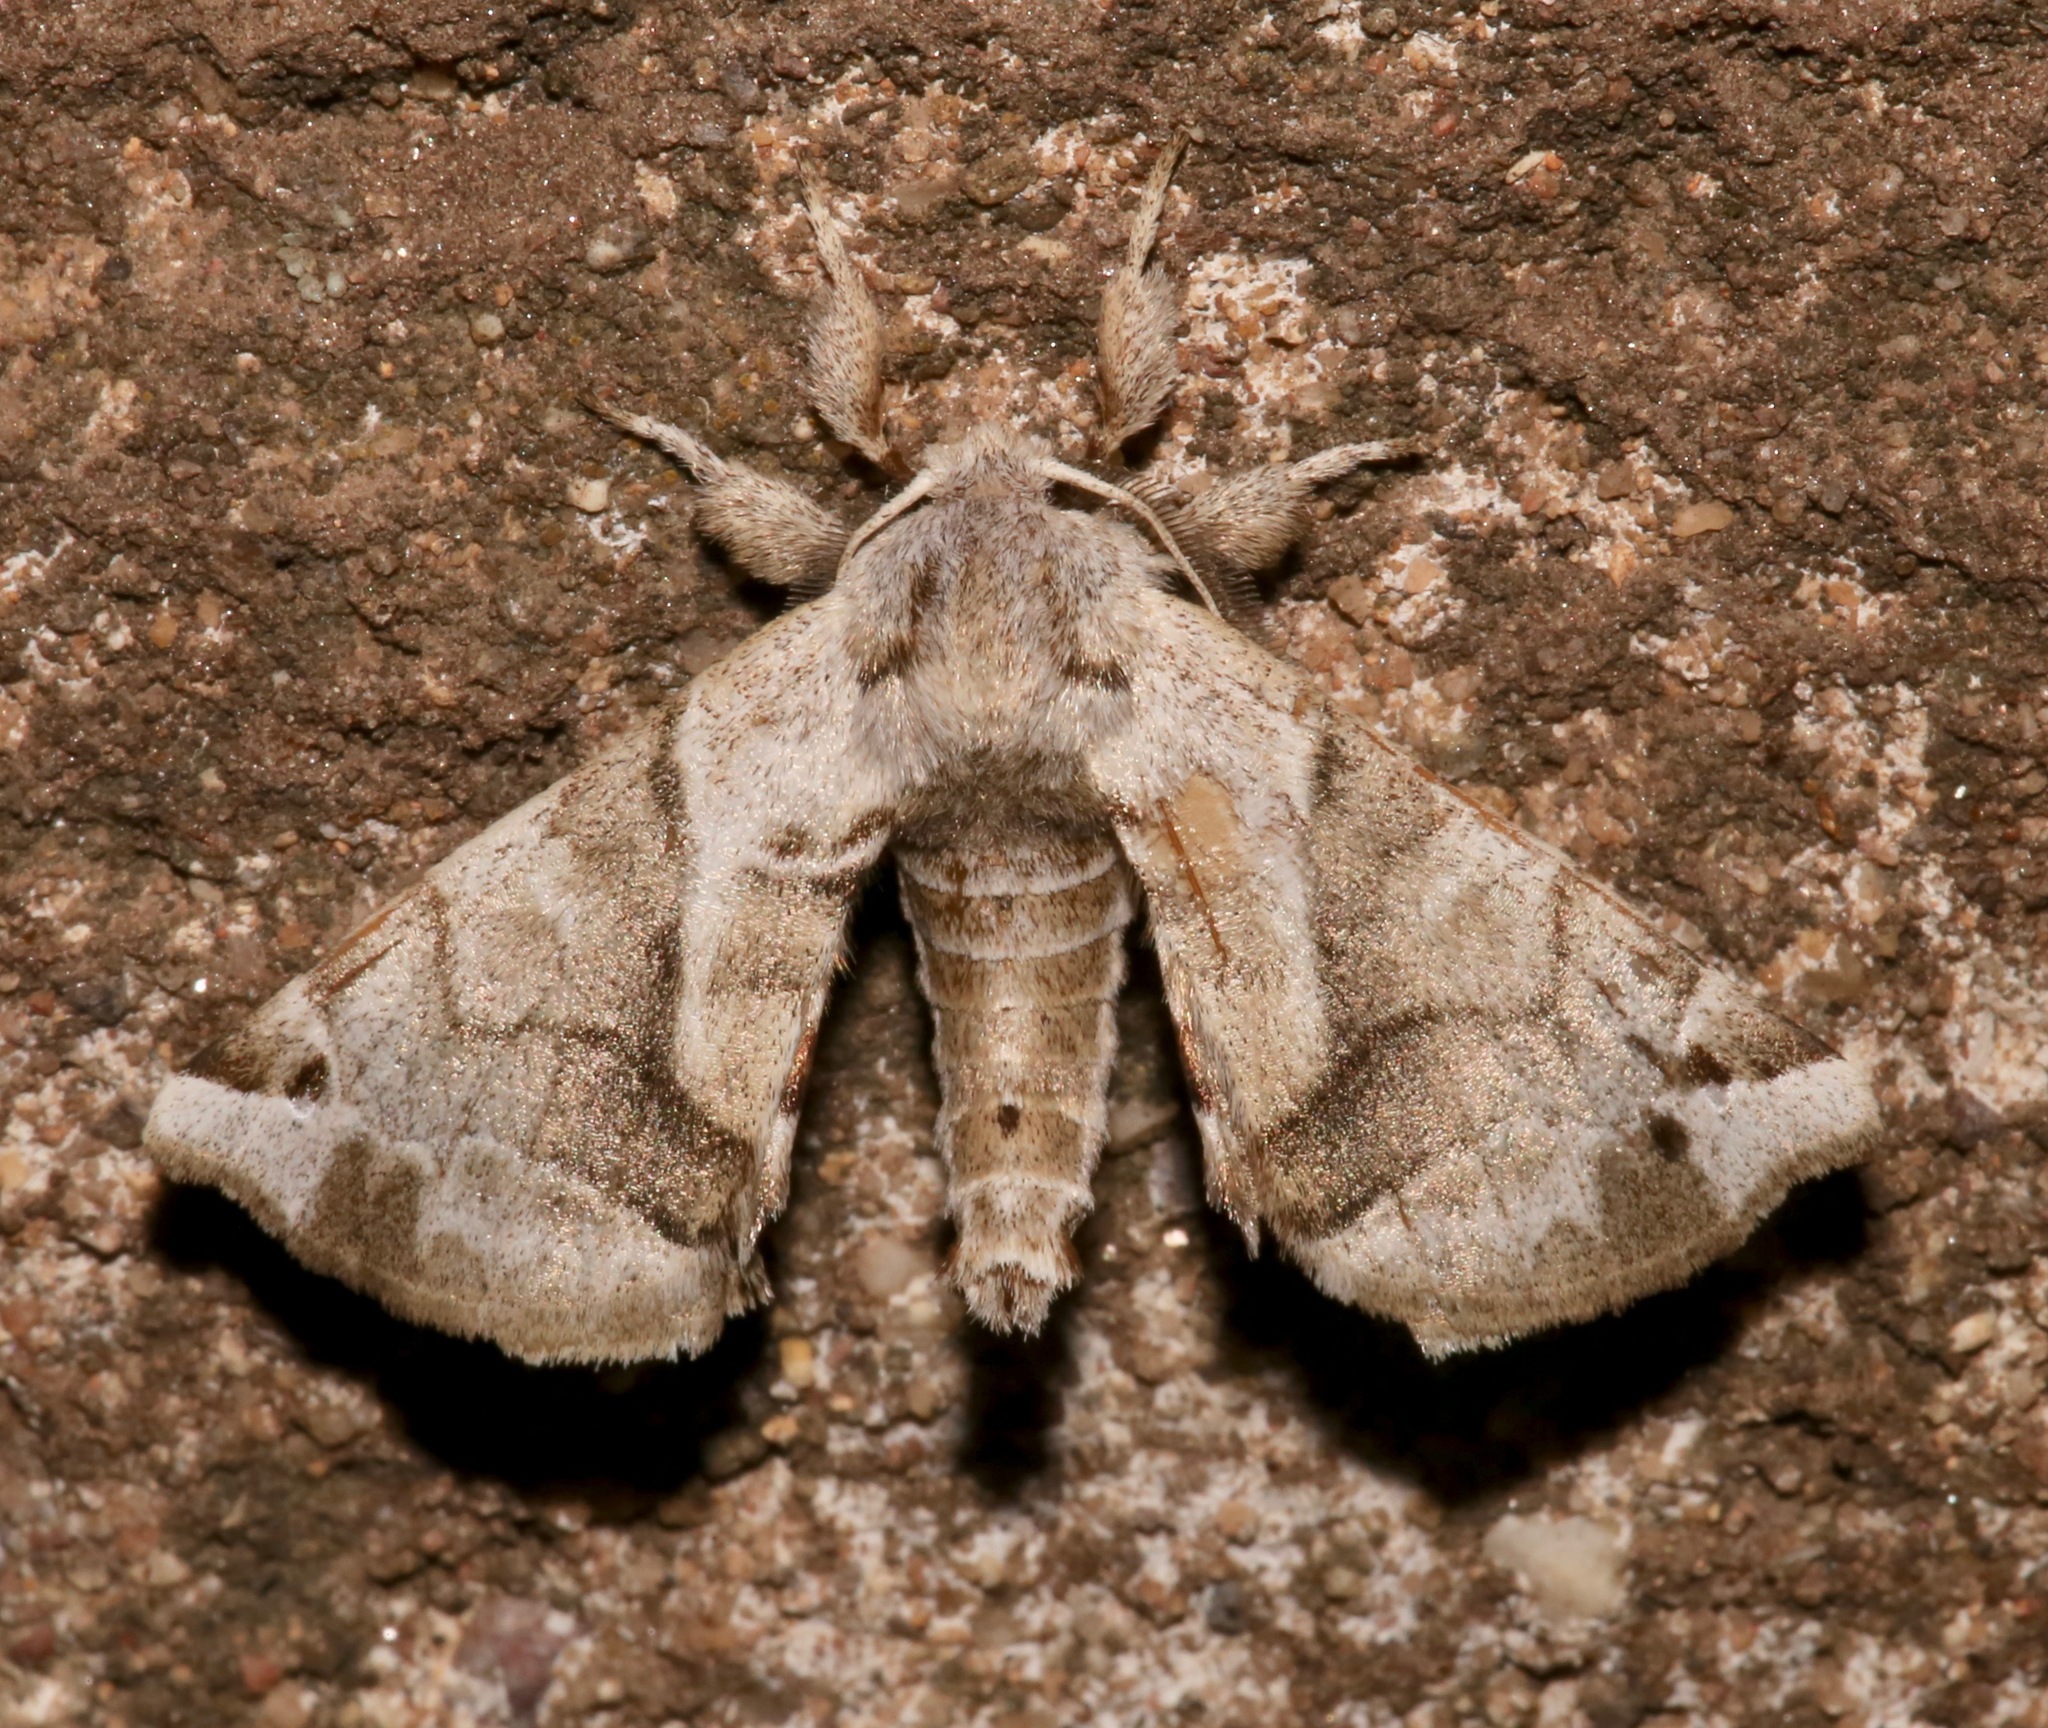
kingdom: Animalia
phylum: Arthropoda
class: Insecta
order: Lepidoptera
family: Apatelodidae
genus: Hygrochroa
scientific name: Hygrochroa Apatelodes pudefacta
